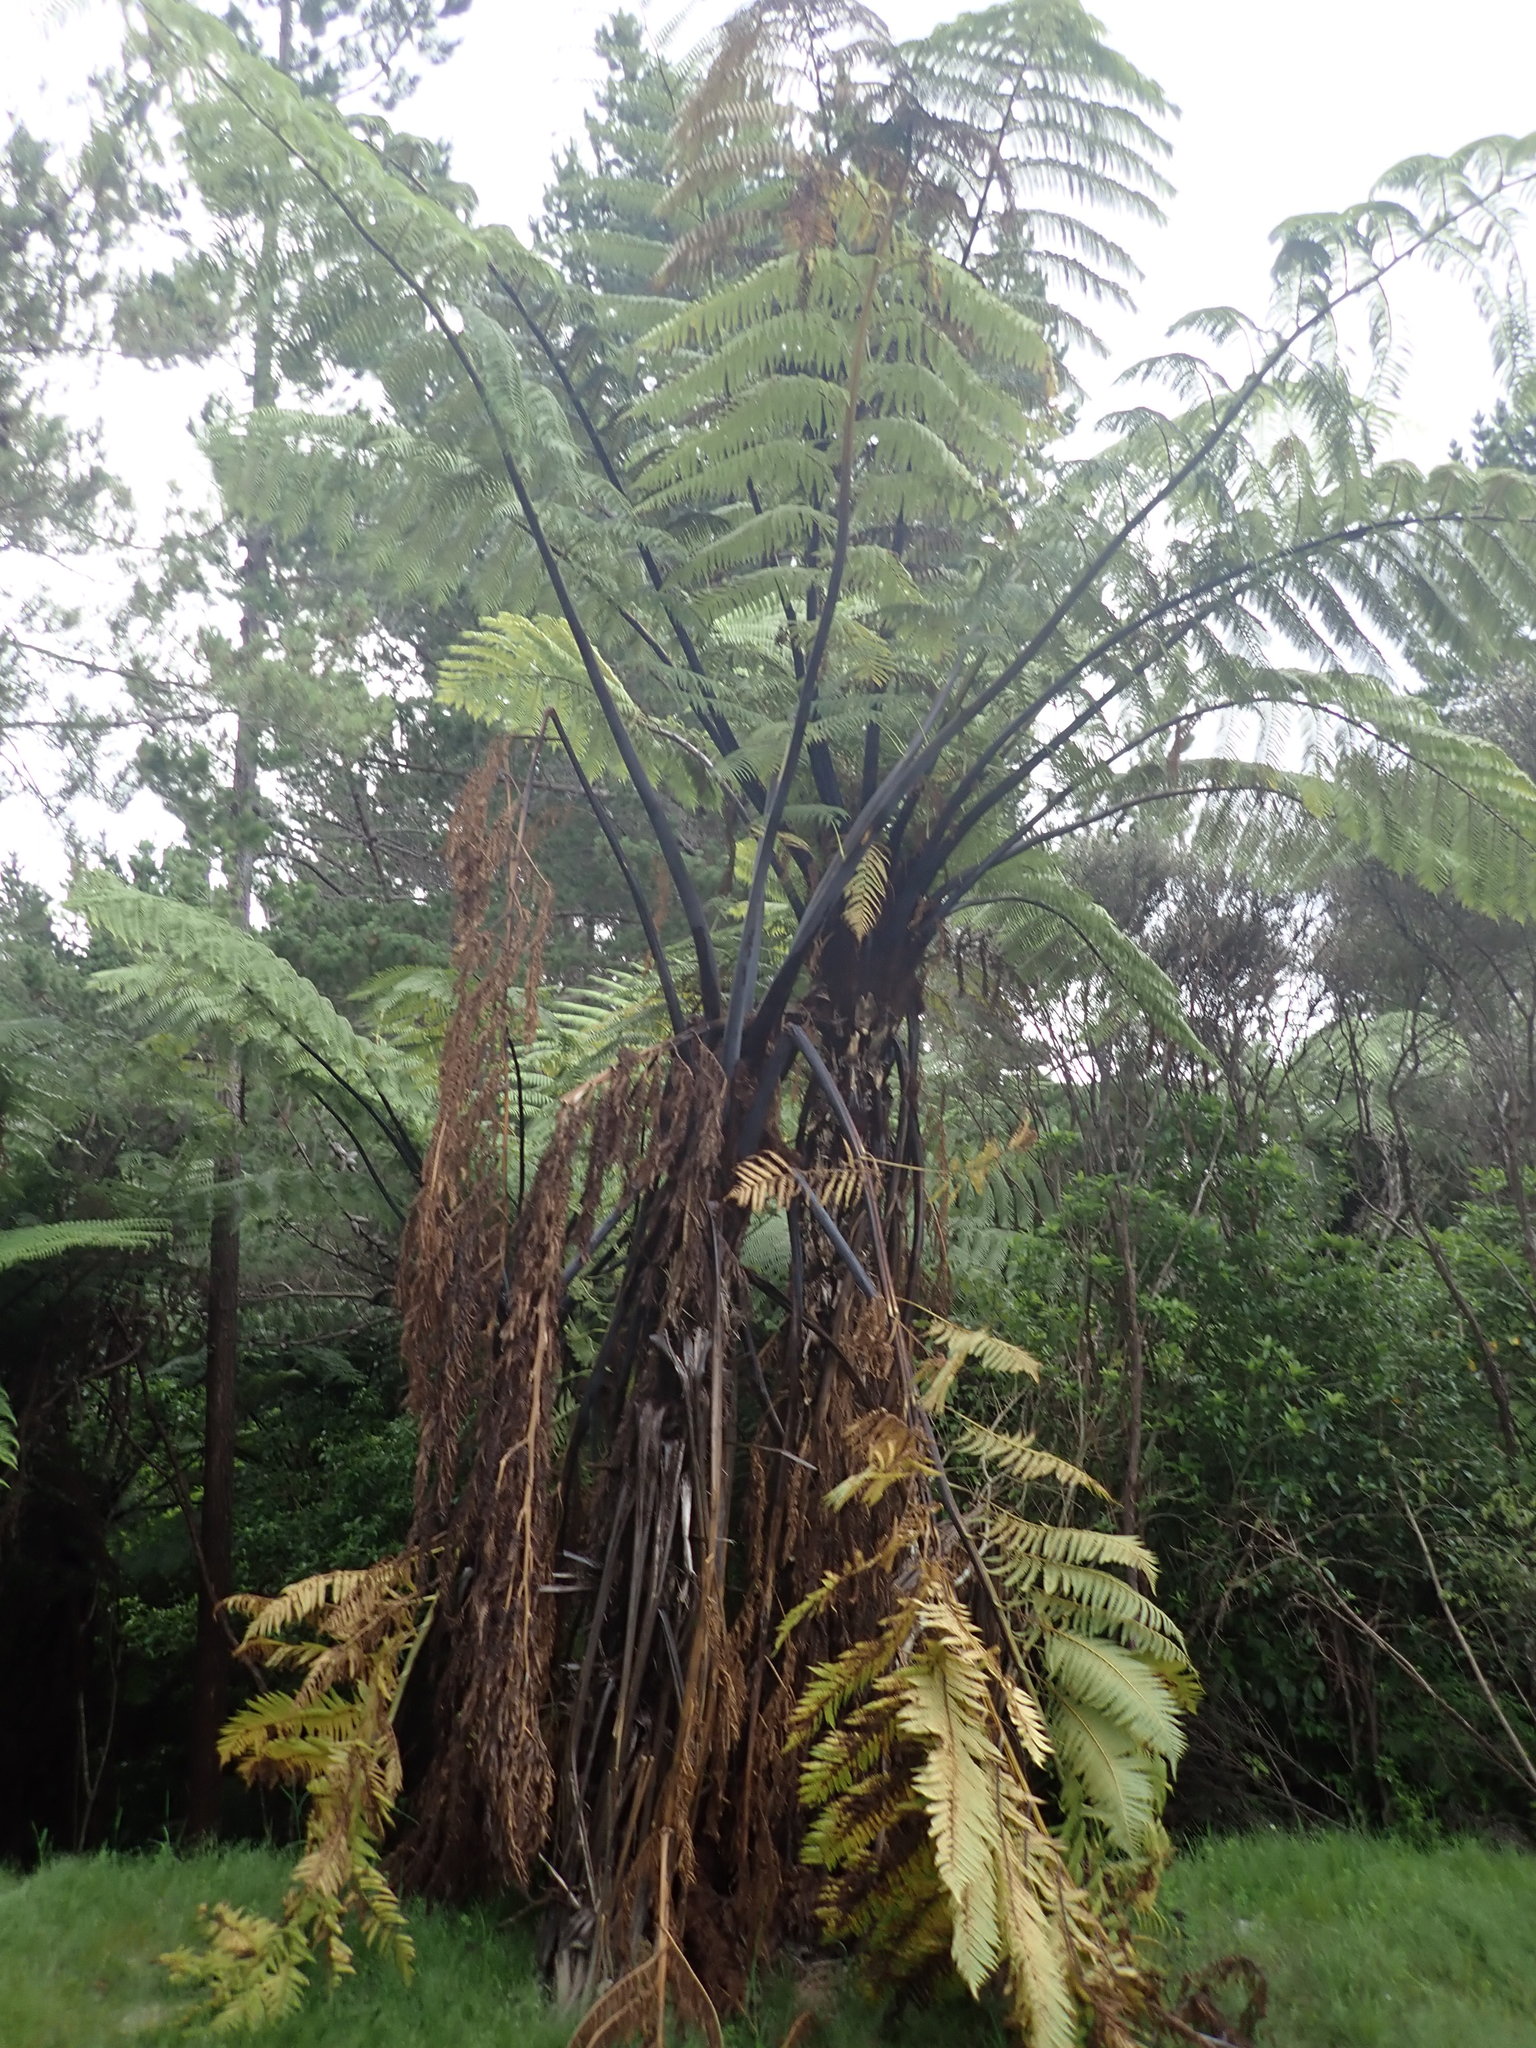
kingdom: Plantae
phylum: Tracheophyta
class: Polypodiopsida
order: Cyatheales
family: Cyatheaceae
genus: Sphaeropteris
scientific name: Sphaeropteris medullaris
